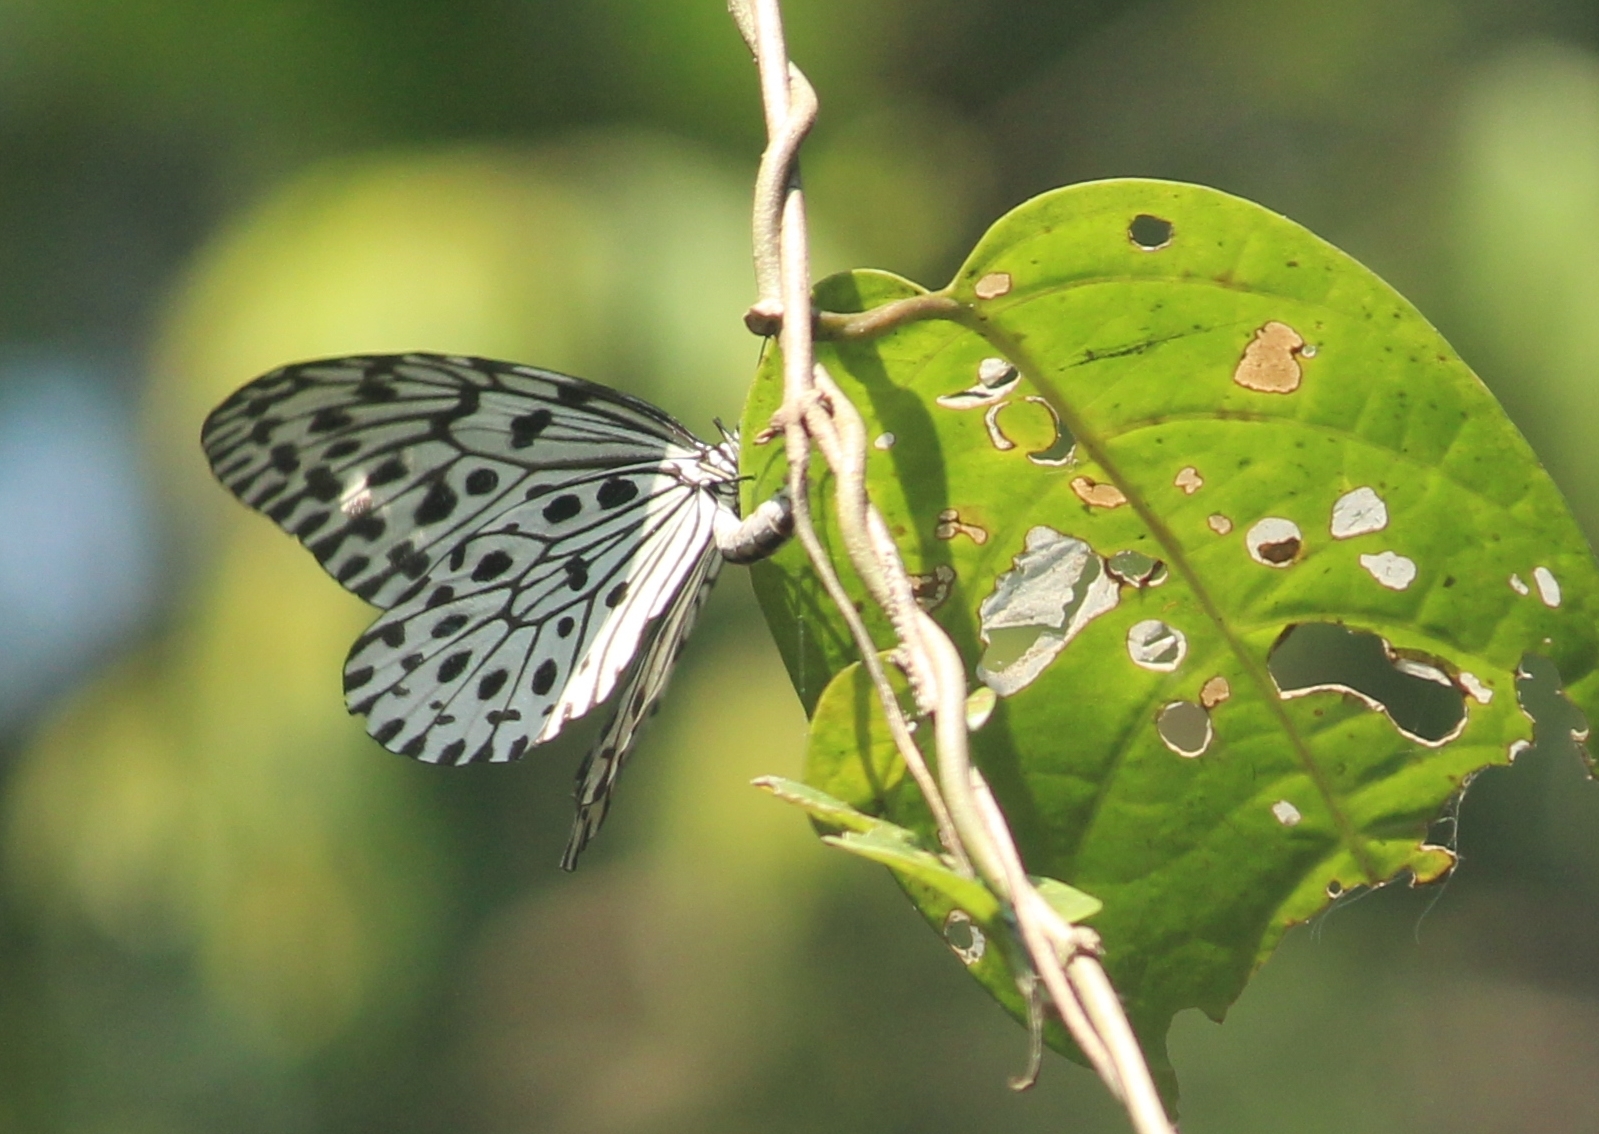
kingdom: Animalia
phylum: Arthropoda
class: Insecta
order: Lepidoptera
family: Nymphalidae
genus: Idea
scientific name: Idea malabarica
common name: Malabar tree-nymph
